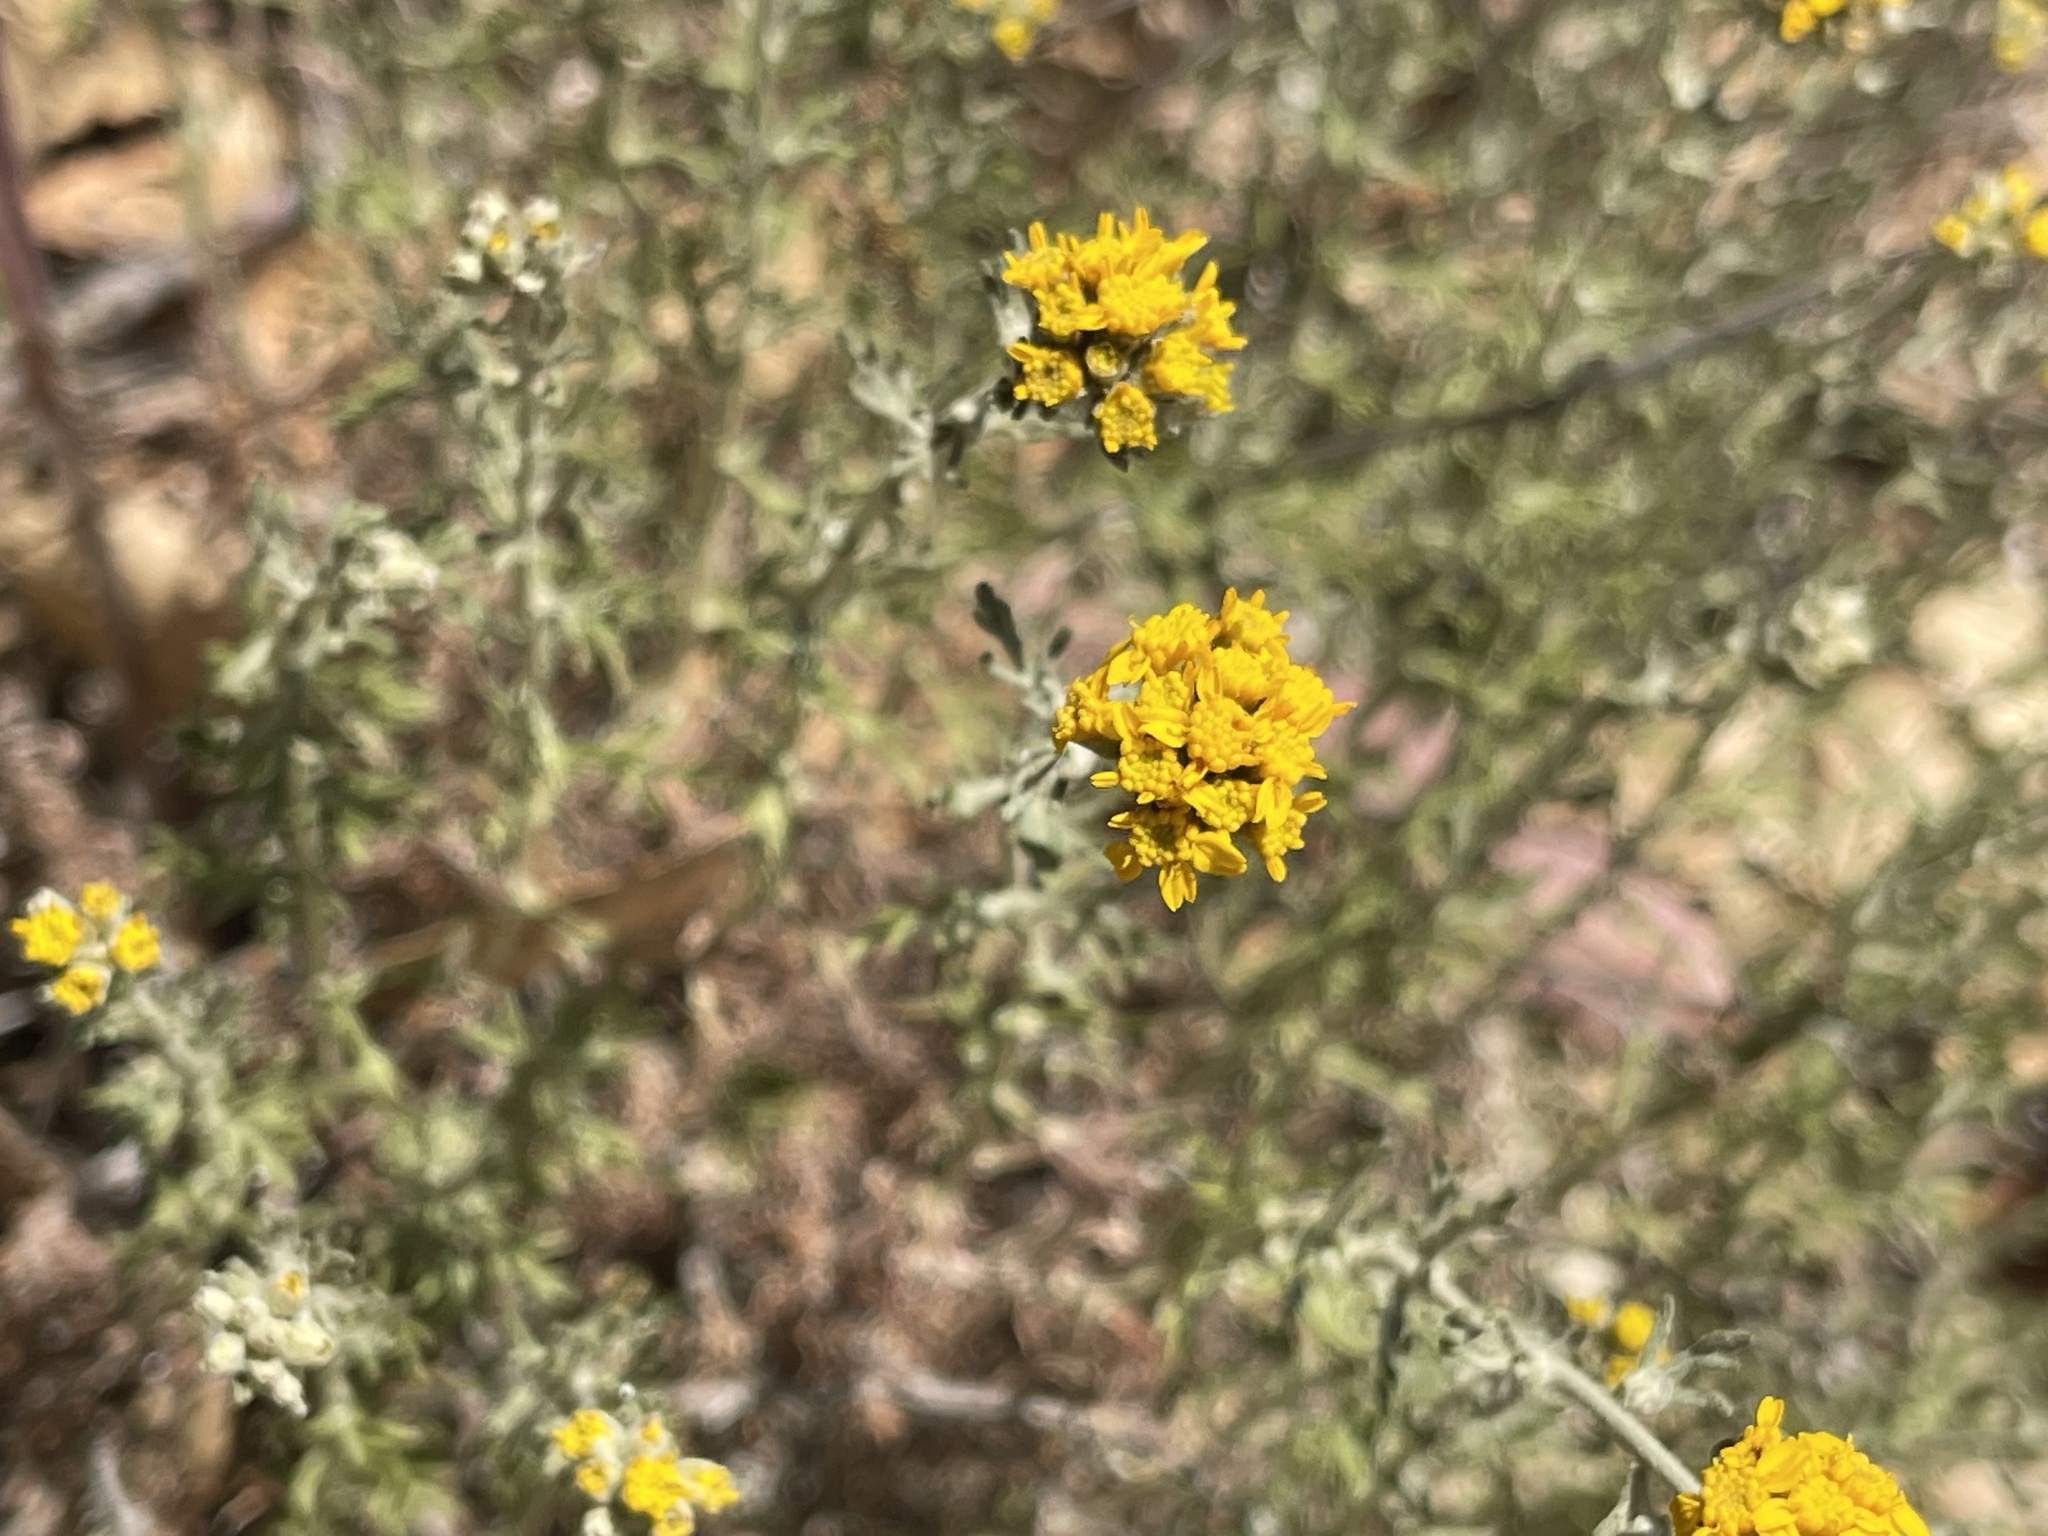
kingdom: Plantae
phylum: Tracheophyta
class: Magnoliopsida
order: Asterales
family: Asteraceae
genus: Eriophyllum
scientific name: Eriophyllum confertiflorum
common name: Golden-yarrow
